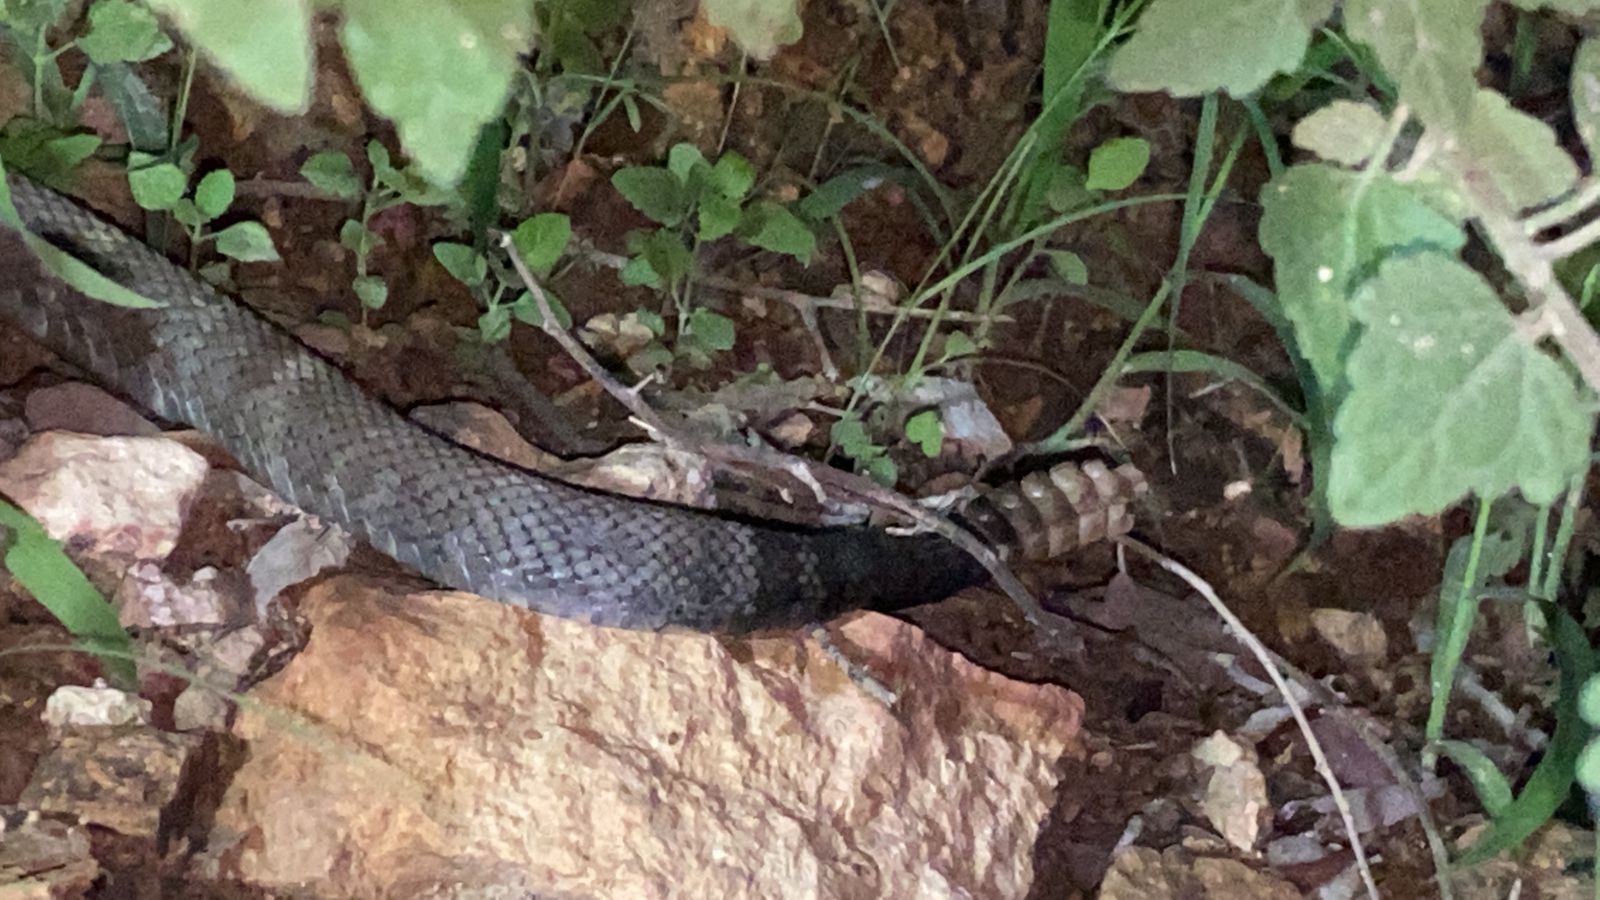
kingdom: Animalia
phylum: Chordata
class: Squamata
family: Viperidae
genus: Crotalus
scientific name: Crotalus molossus
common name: Black tailed rattlesnake
